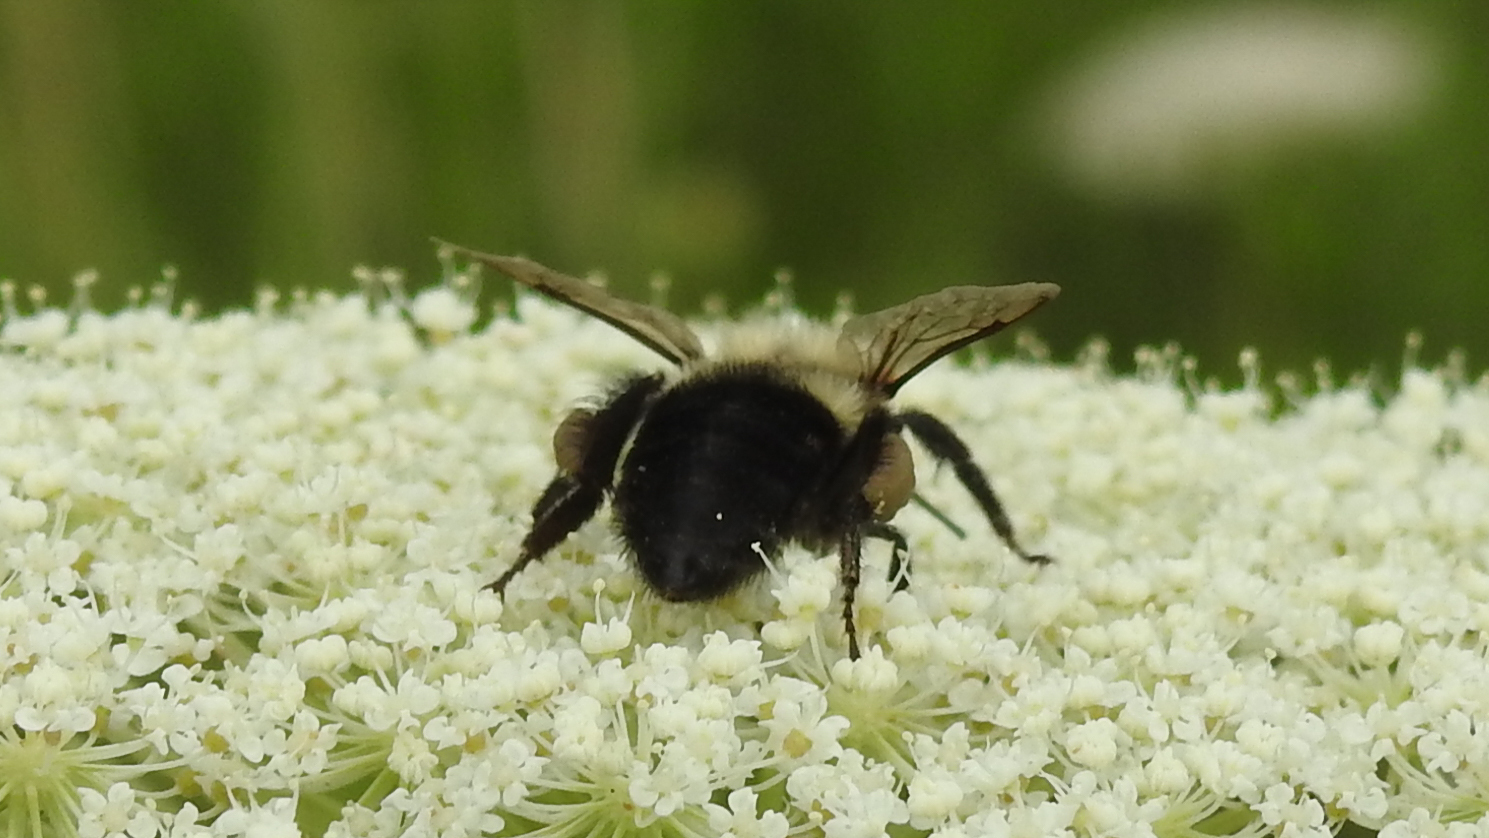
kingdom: Animalia
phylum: Arthropoda
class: Insecta
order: Hymenoptera
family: Apidae
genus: Bombus
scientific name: Bombus impatiens
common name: Common eastern bumble bee
